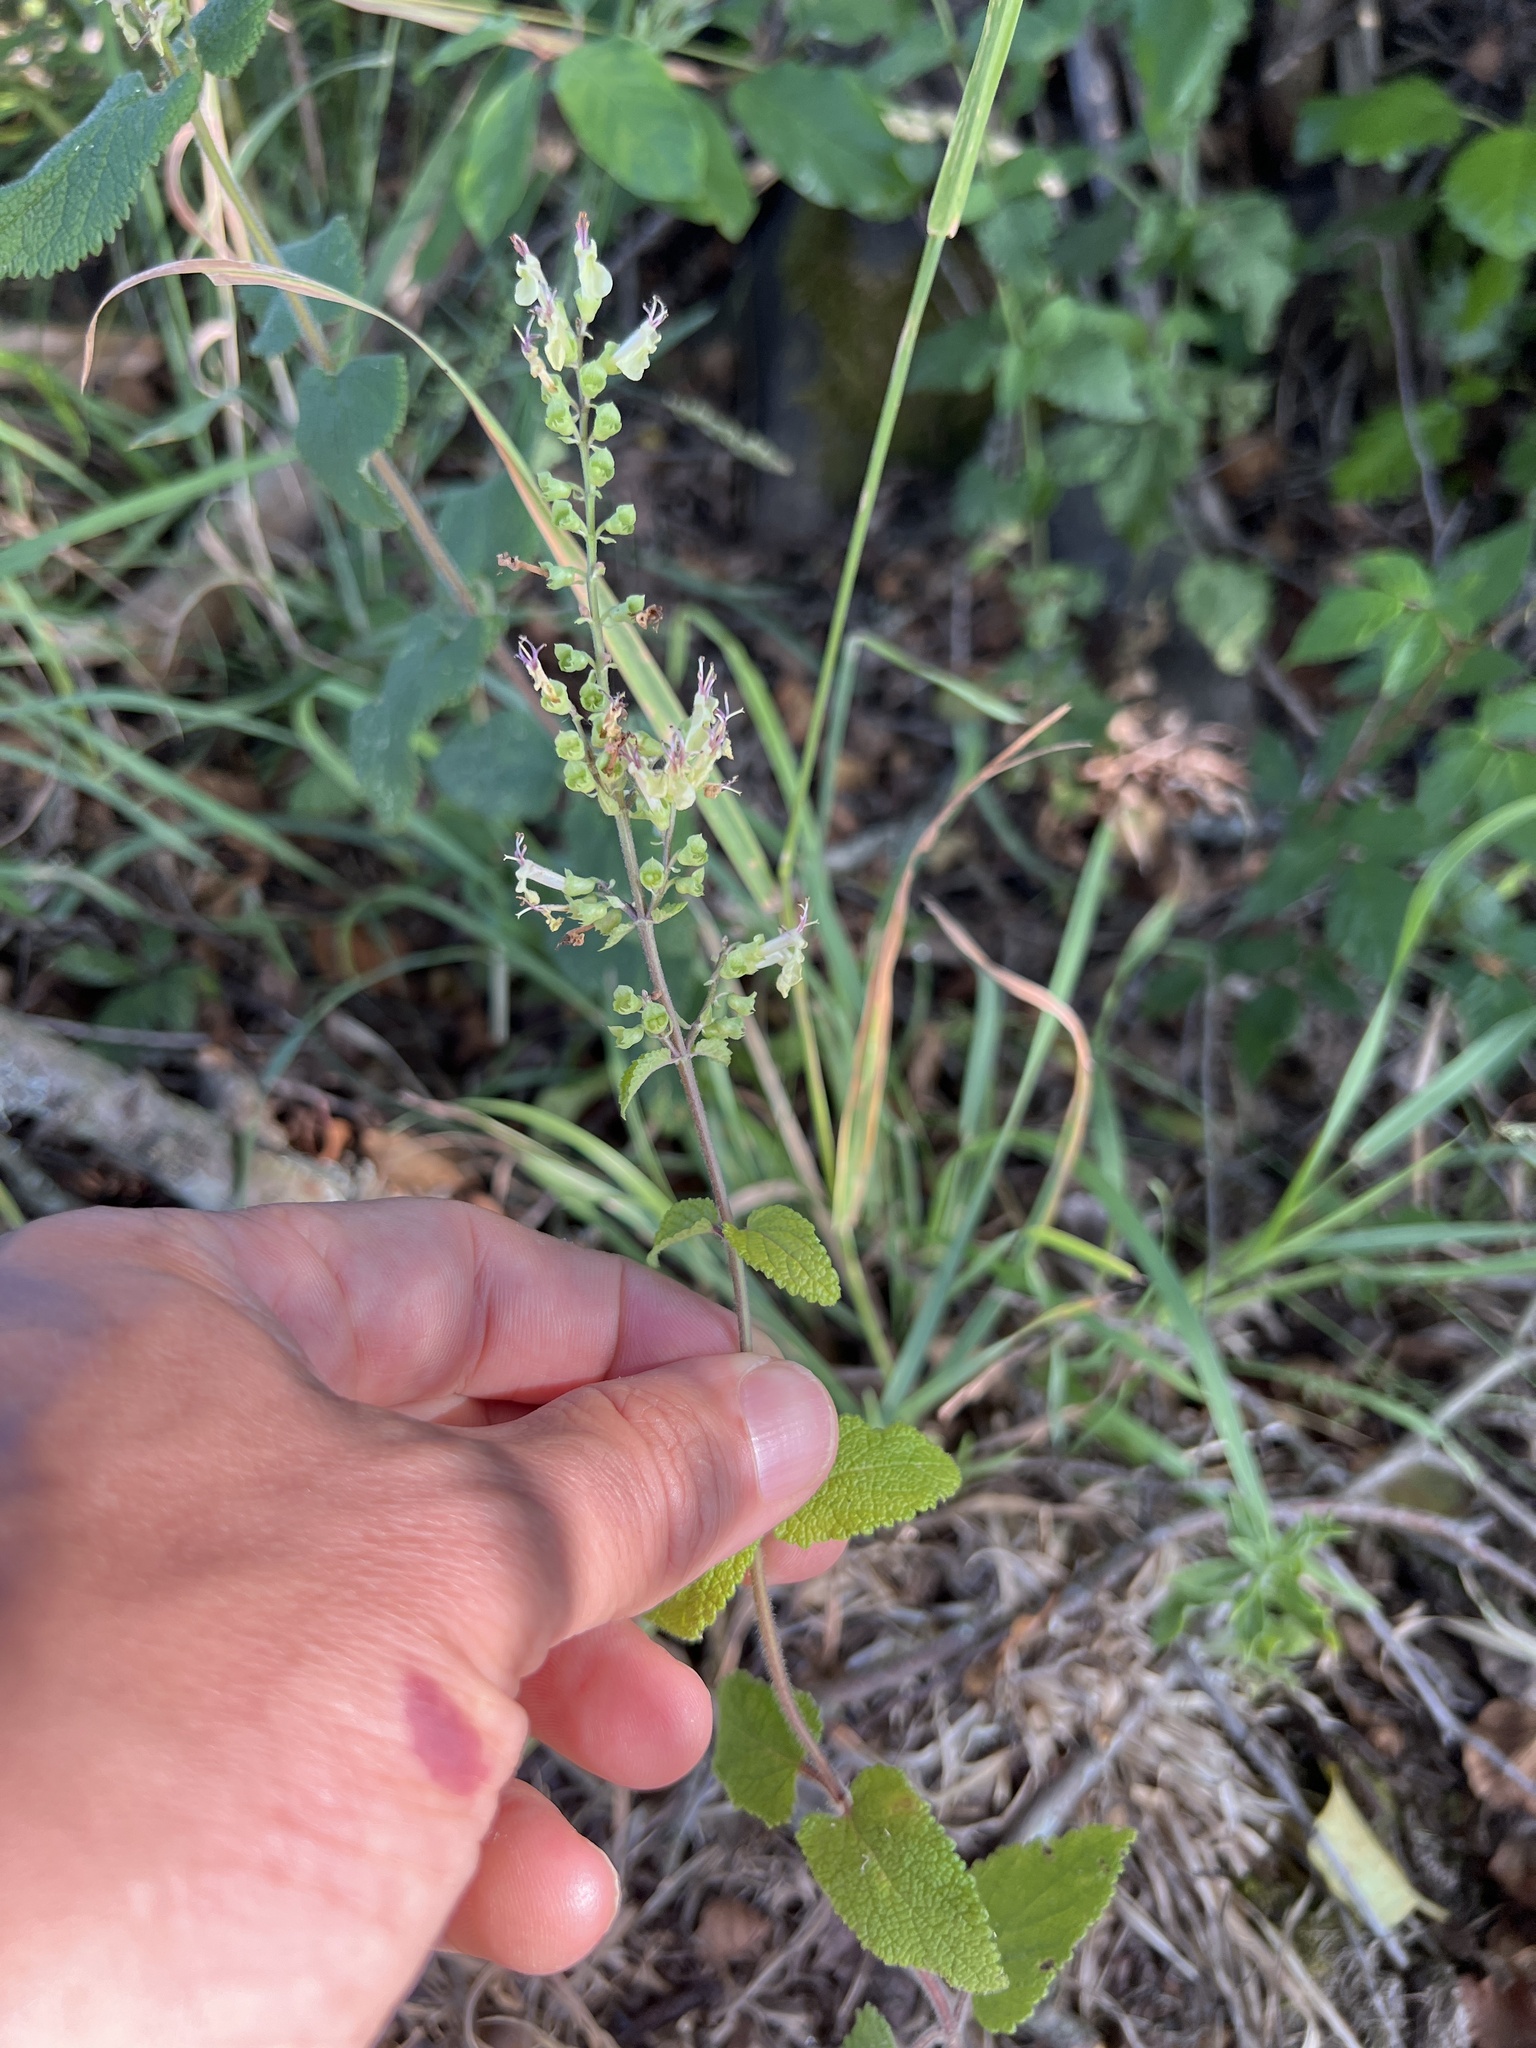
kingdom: Plantae
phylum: Tracheophyta
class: Magnoliopsida
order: Lamiales
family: Lamiaceae
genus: Teucrium
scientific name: Teucrium scorodonia
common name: Woodland germander
